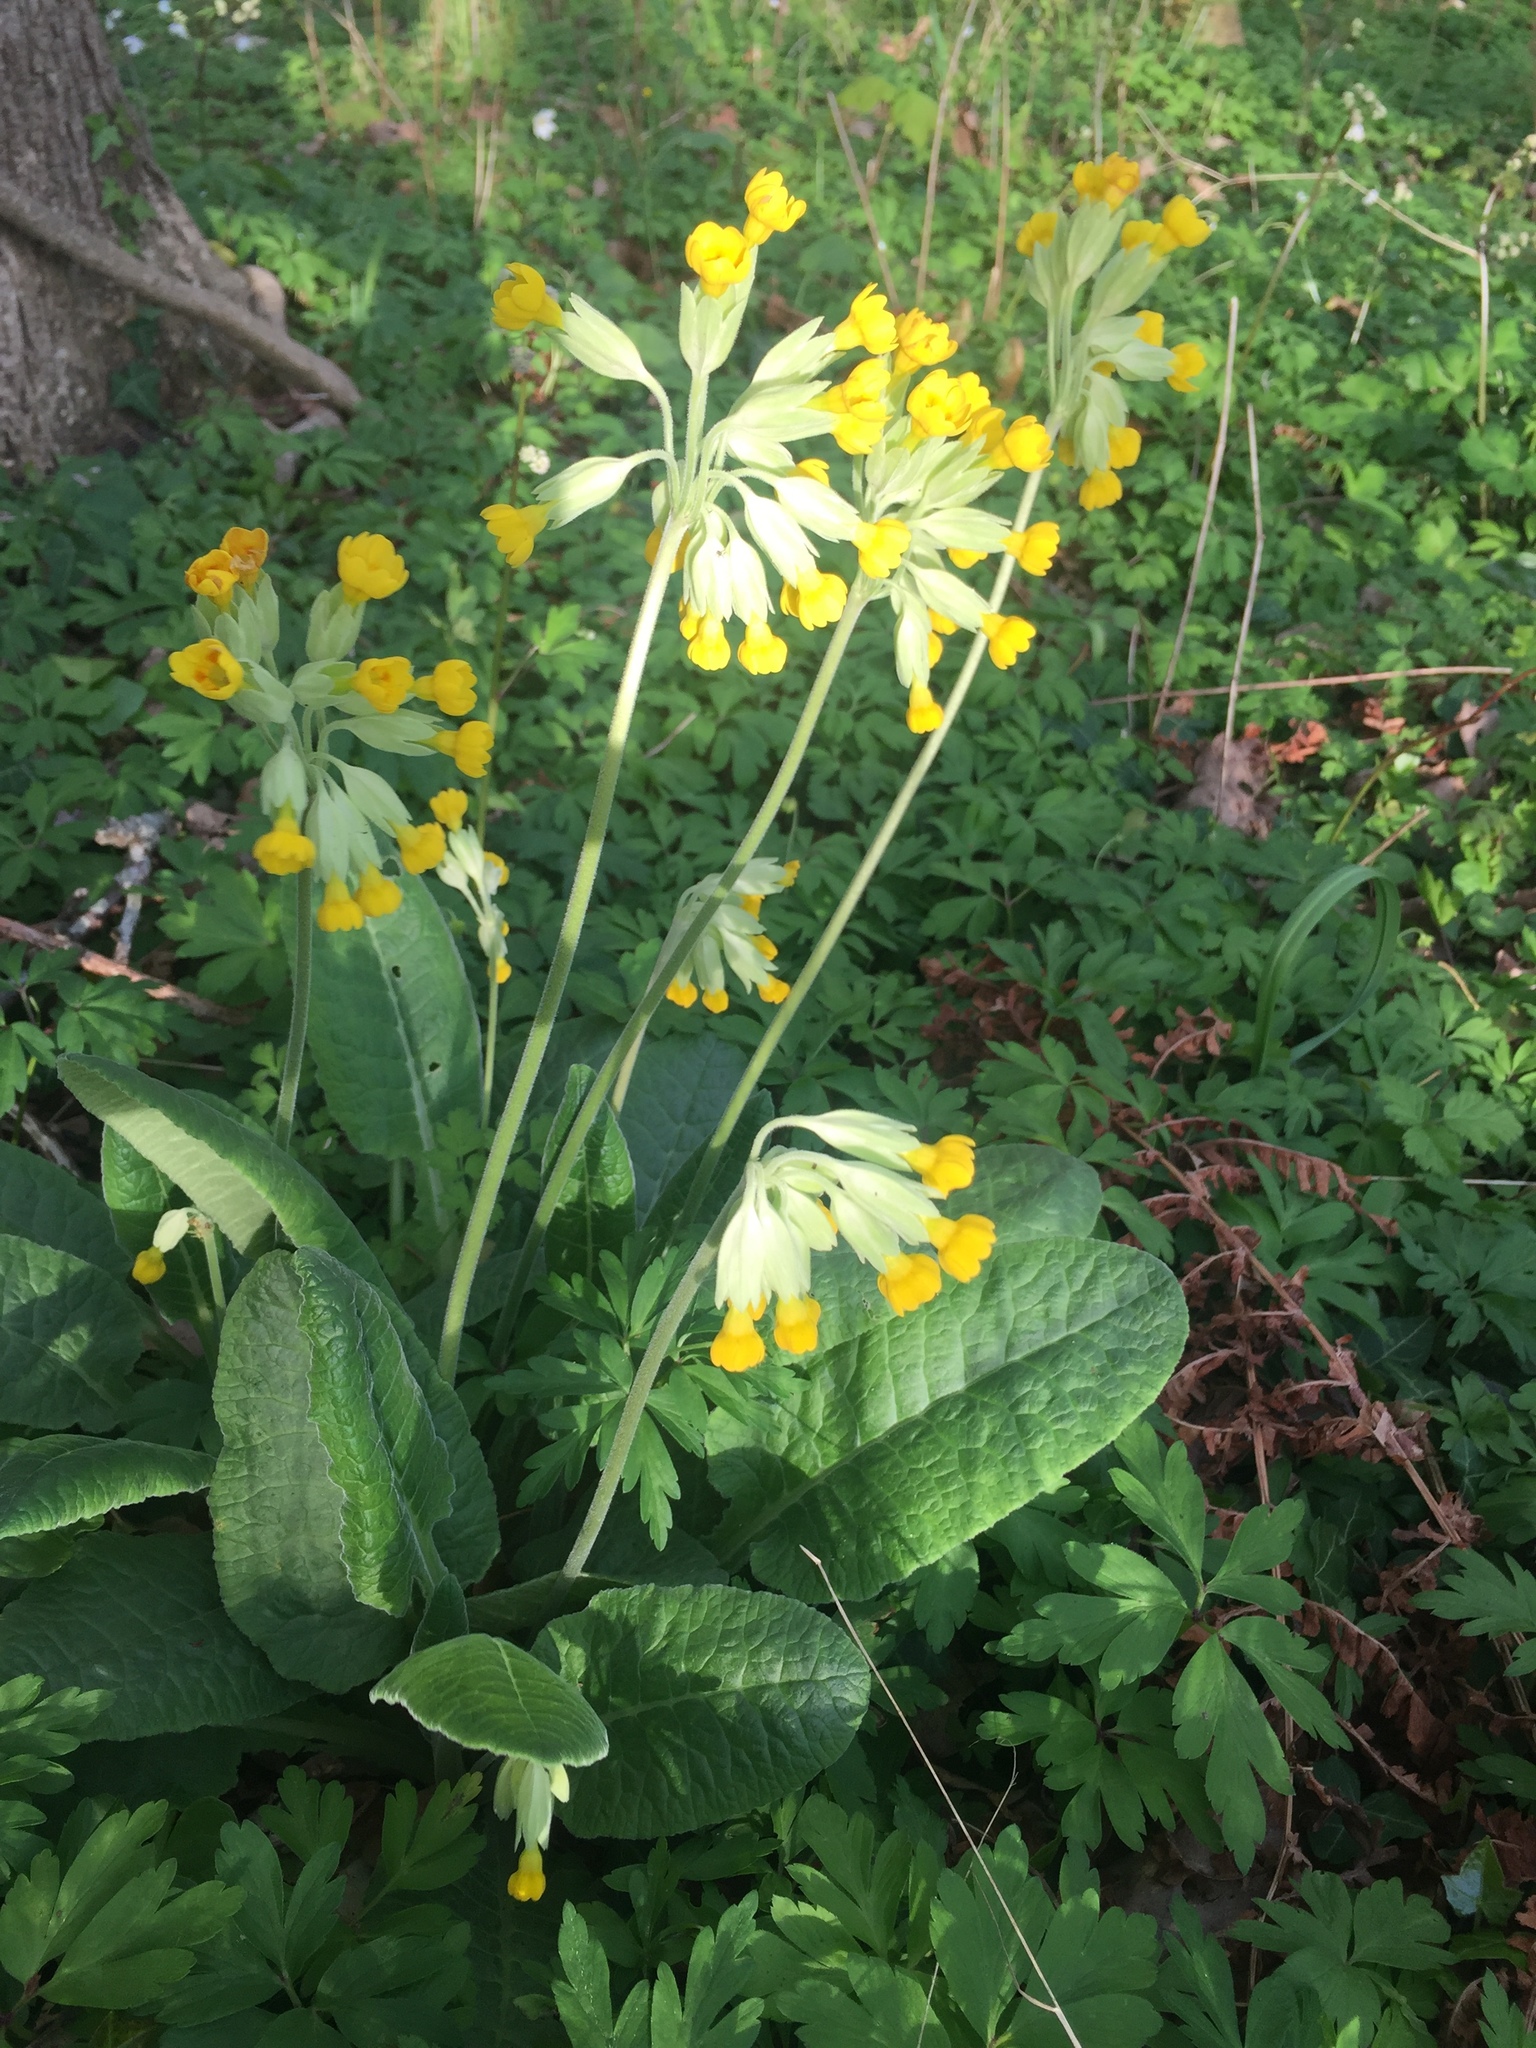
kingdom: Plantae
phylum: Tracheophyta
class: Magnoliopsida
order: Ericales
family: Primulaceae
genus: Primula
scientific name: Primula veris
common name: Cowslip
